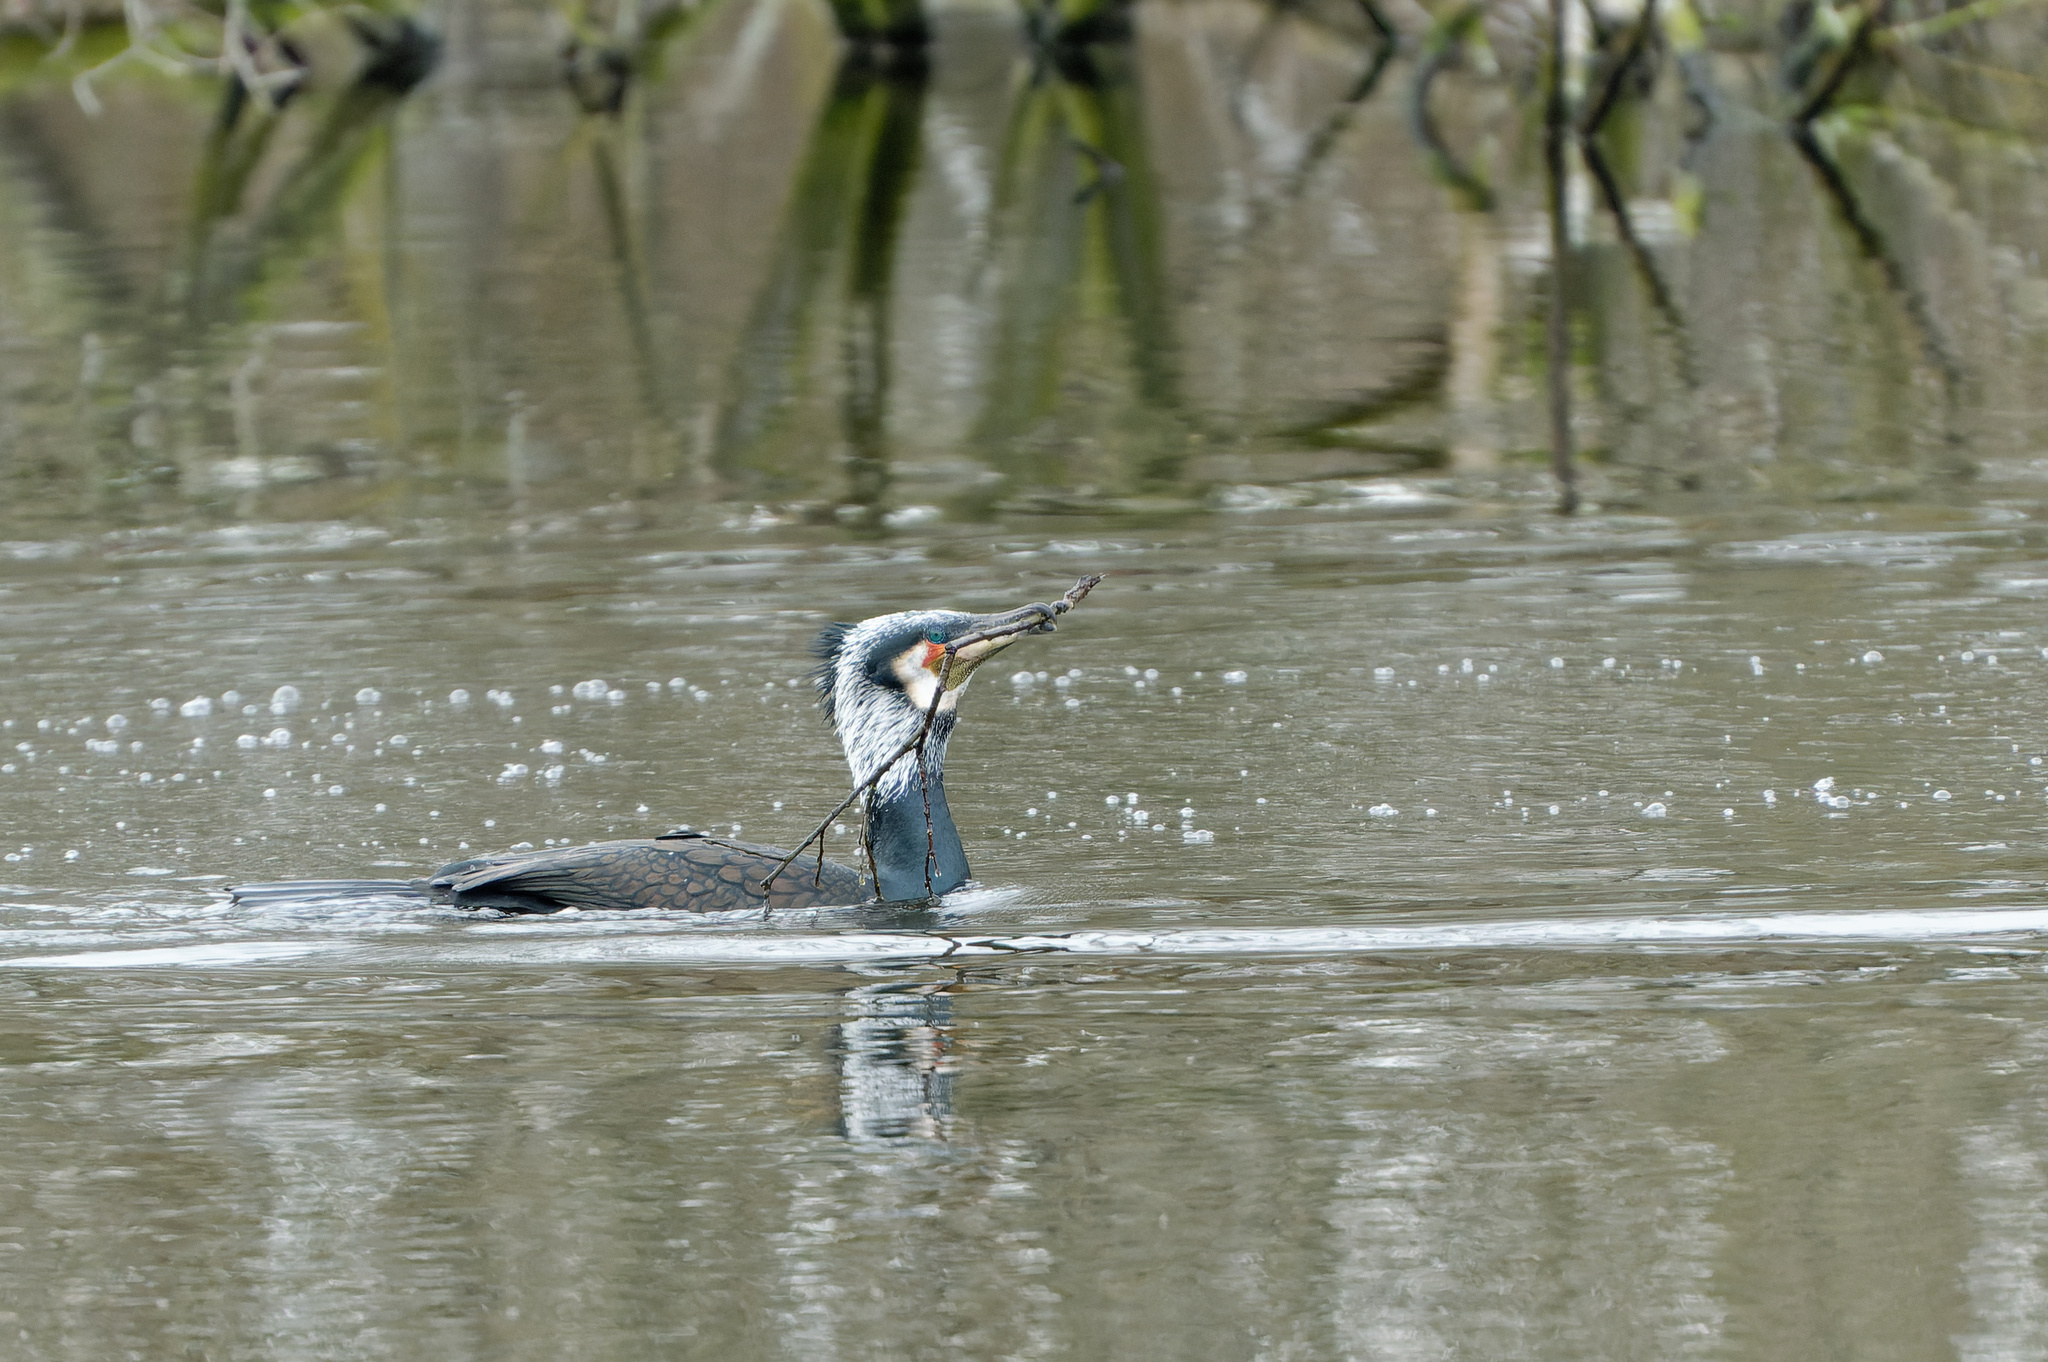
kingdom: Animalia
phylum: Chordata
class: Aves
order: Suliformes
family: Phalacrocoracidae
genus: Phalacrocorax
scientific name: Phalacrocorax carbo
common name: Great cormorant
